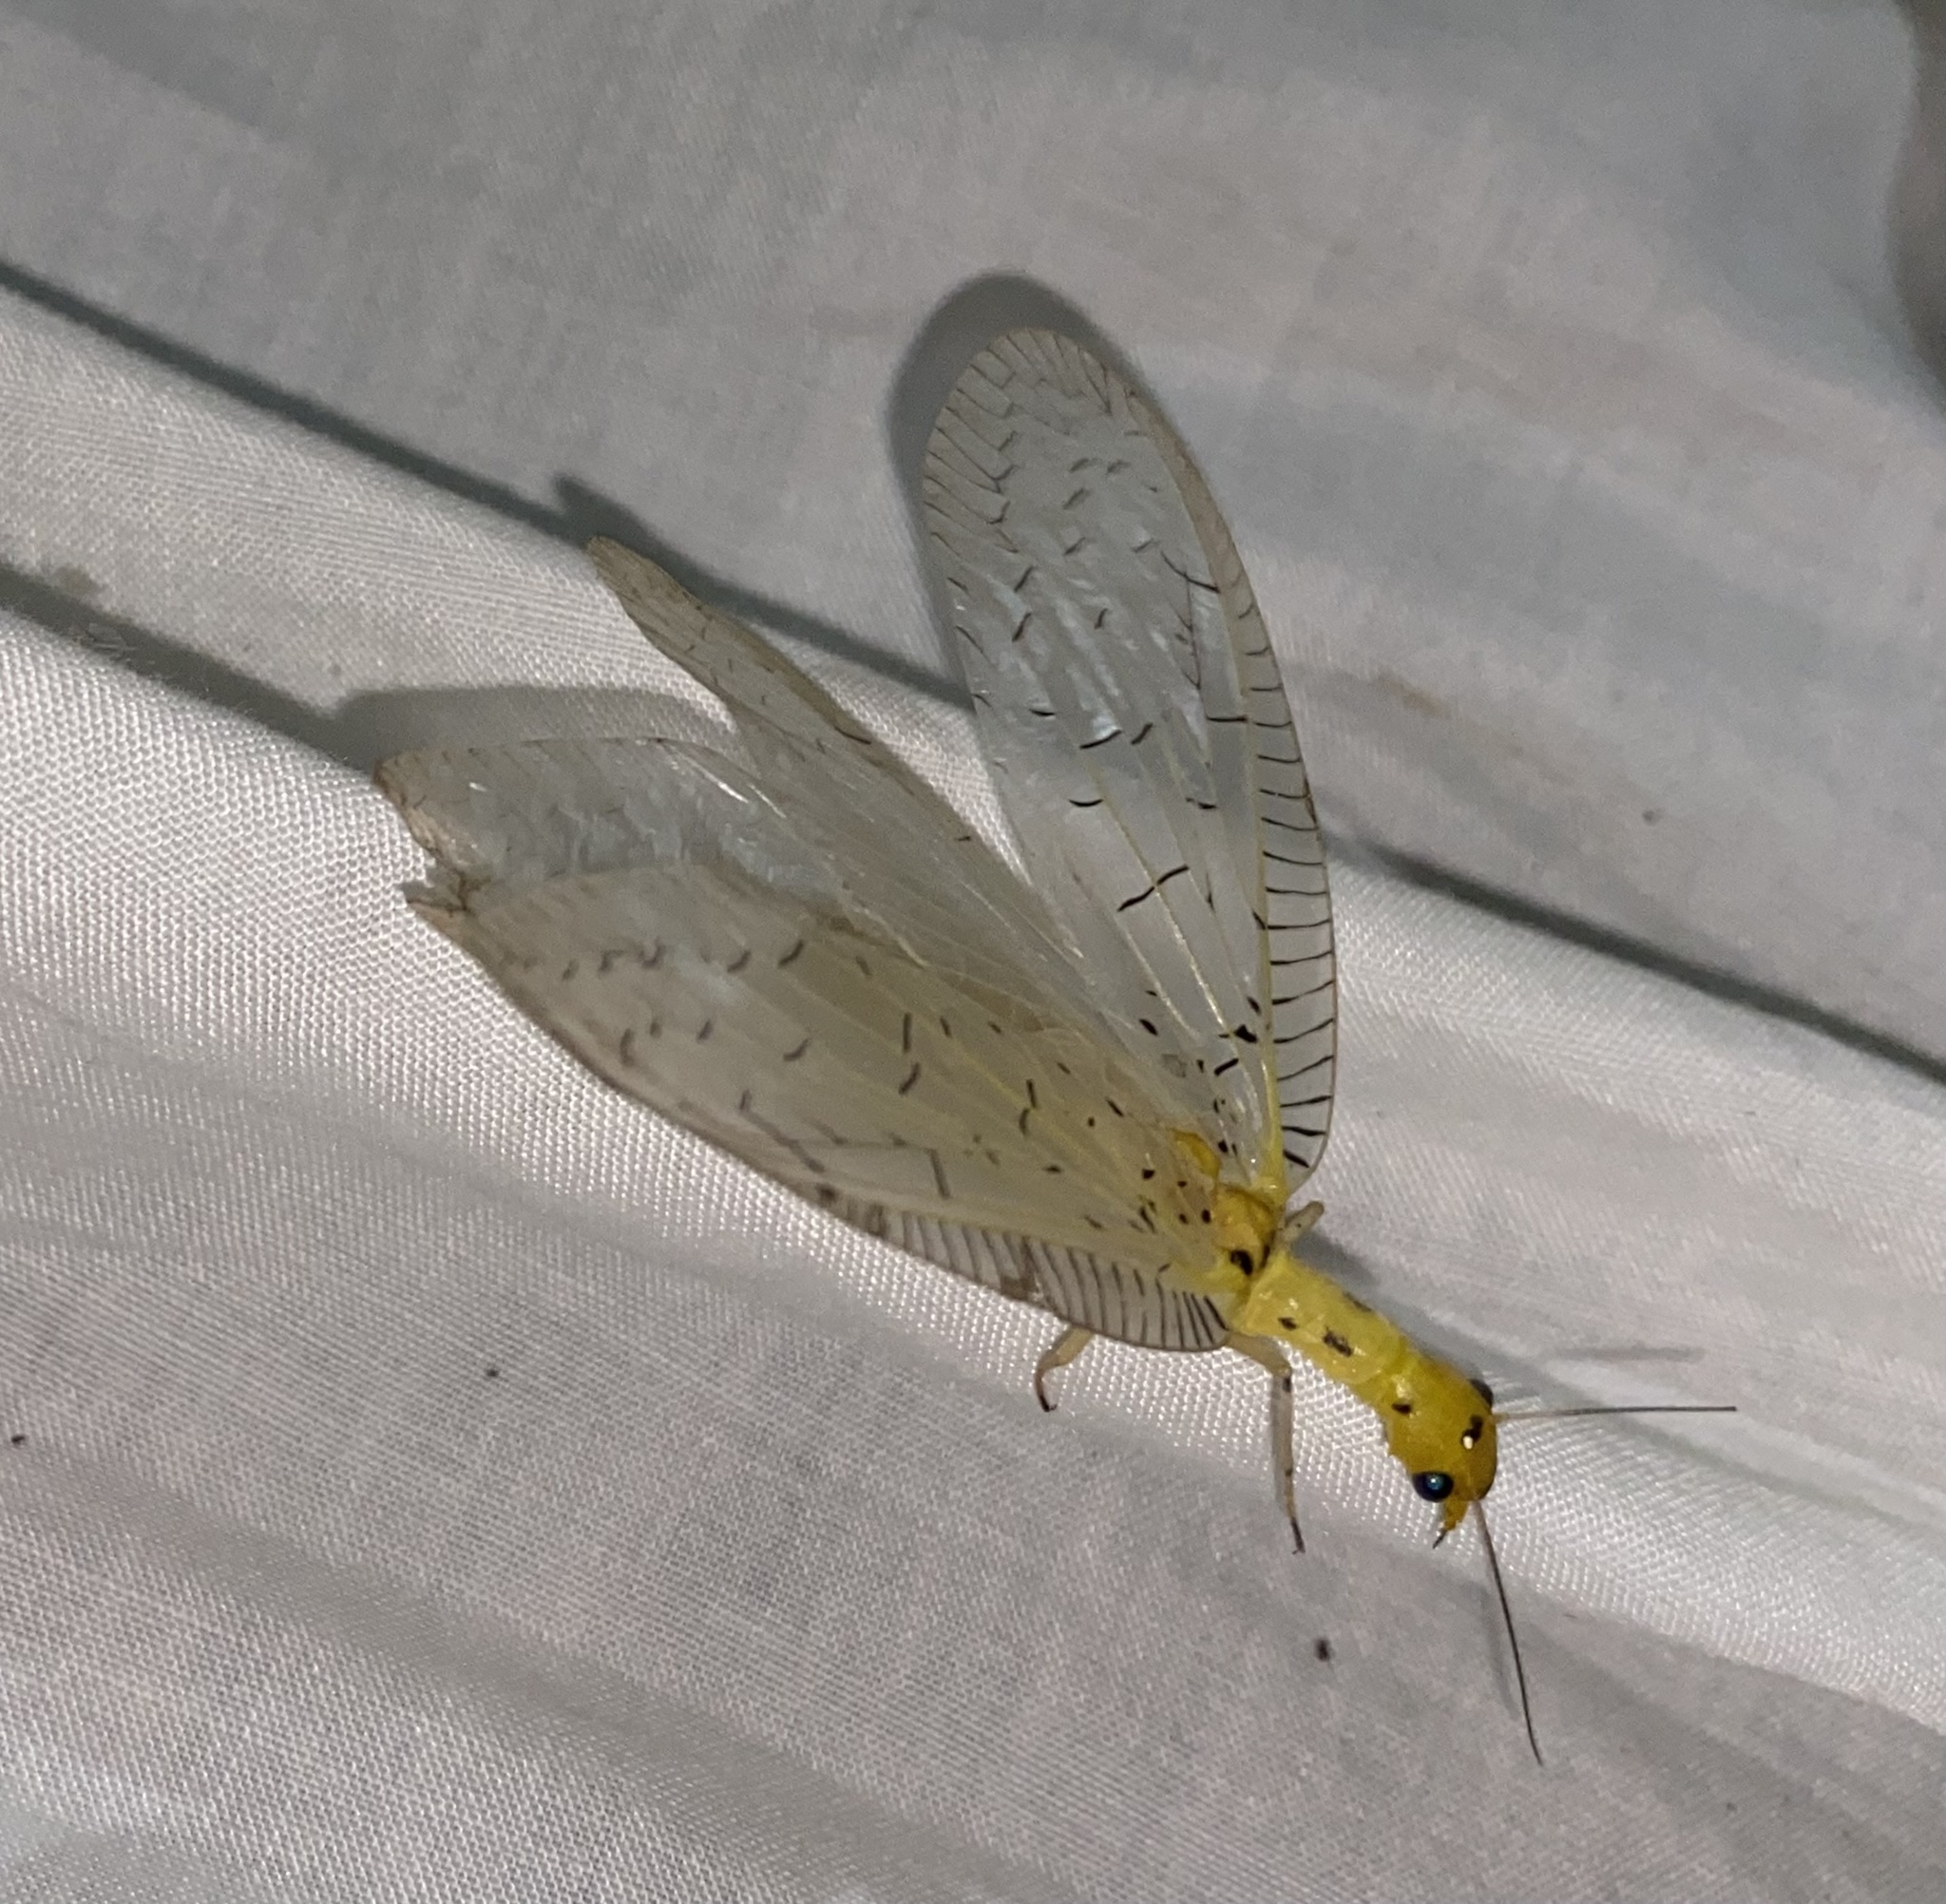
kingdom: Animalia
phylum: Arthropoda
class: Insecta
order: Megaloptera
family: Corydalidae
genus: Chloronia
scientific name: Chloronia mexicana
